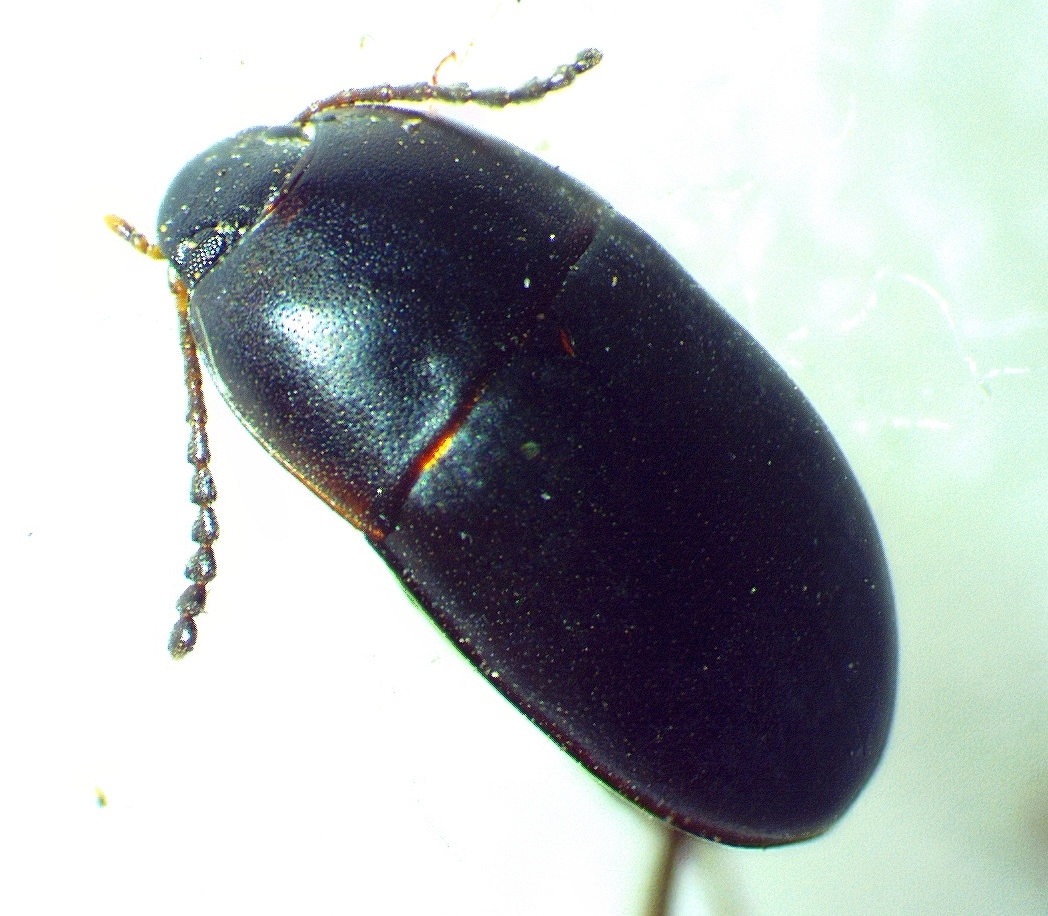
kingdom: Animalia
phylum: Arthropoda
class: Insecta
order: Coleoptera
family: Tenebrionidae
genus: Gondwanocrypticus
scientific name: Gondwanocrypticus platensis
